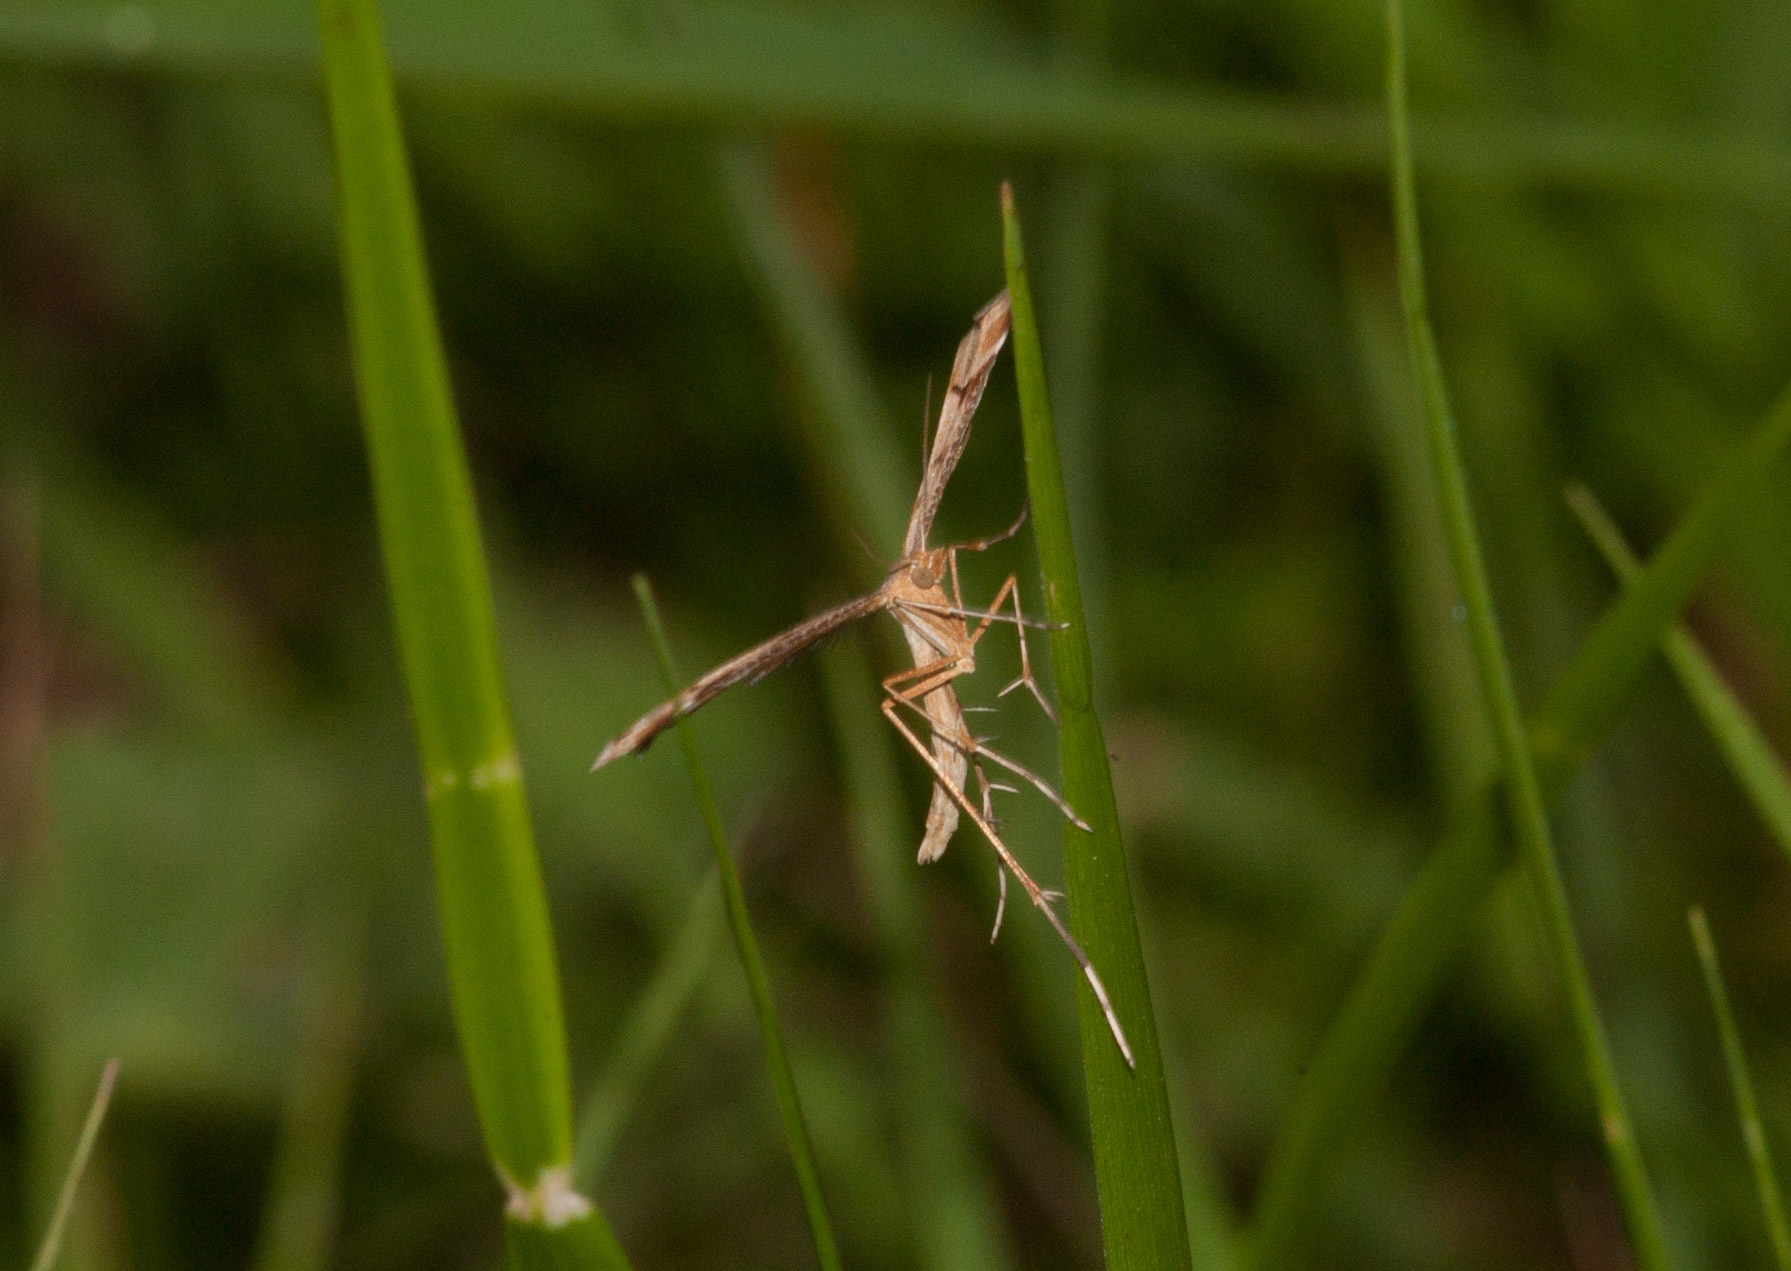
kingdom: Animalia
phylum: Arthropoda
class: Insecta
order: Lepidoptera
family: Pterophoridae
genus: Sinpunctiptilia
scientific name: Sinpunctiptilia emissalis
